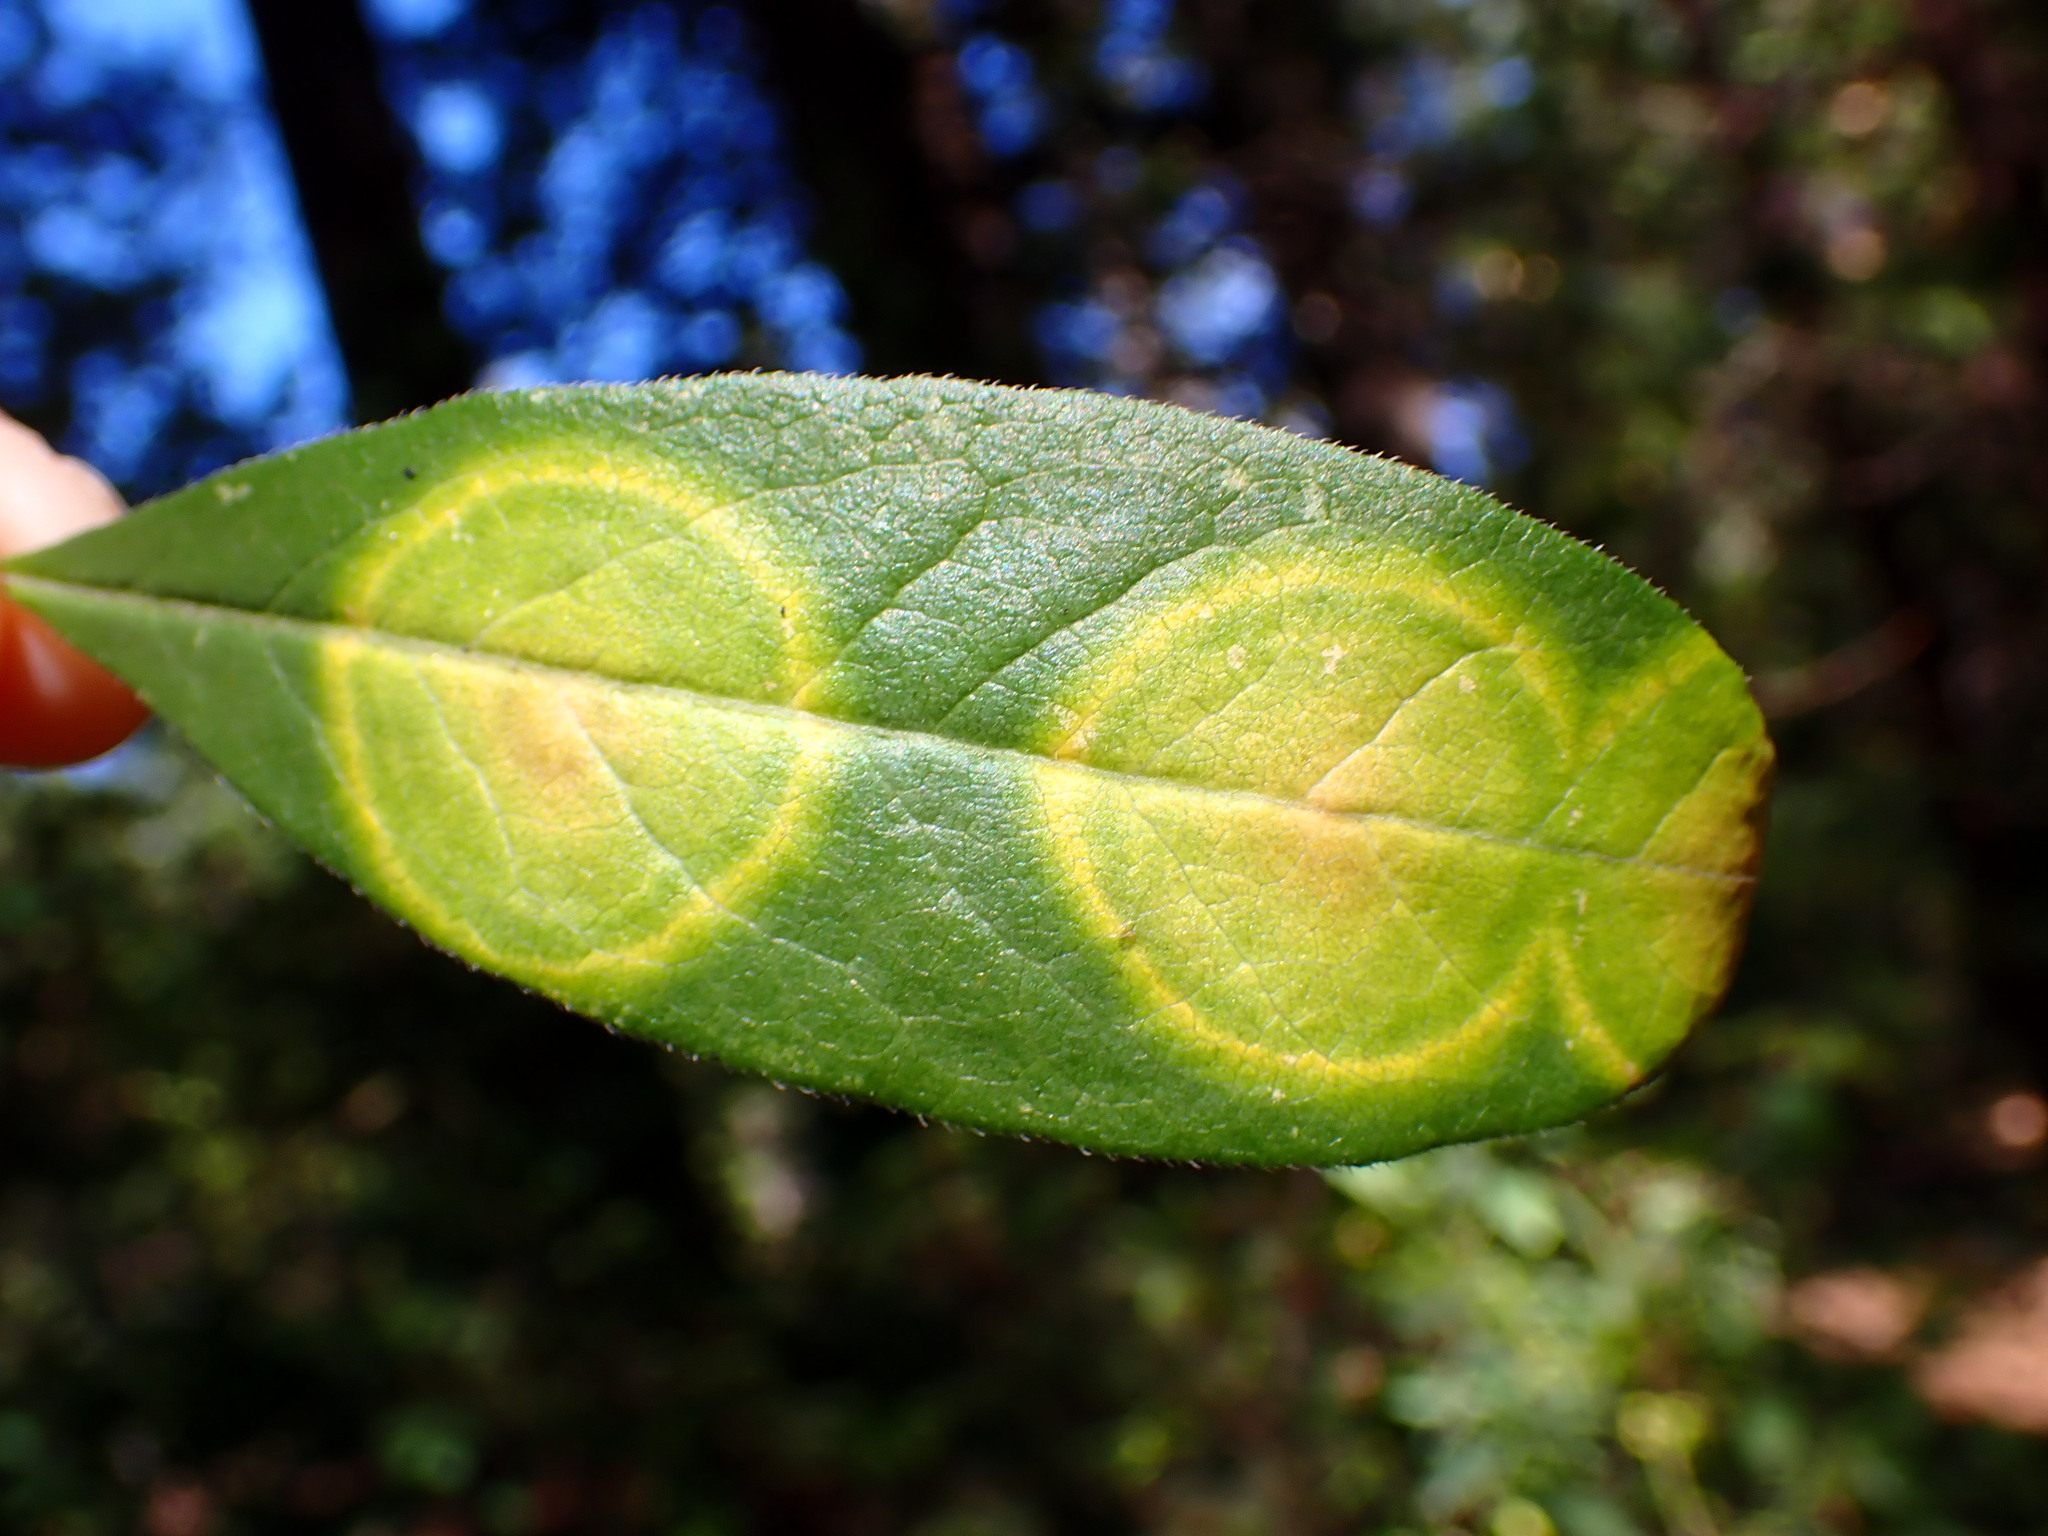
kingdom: Fungi
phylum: Basidiomycota
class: Exobasidiomycetes
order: Exobasidiales
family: Exobasidiaceae
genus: Exobasidium
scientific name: Exobasidium myrtilli
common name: Blaeberry redleaf
